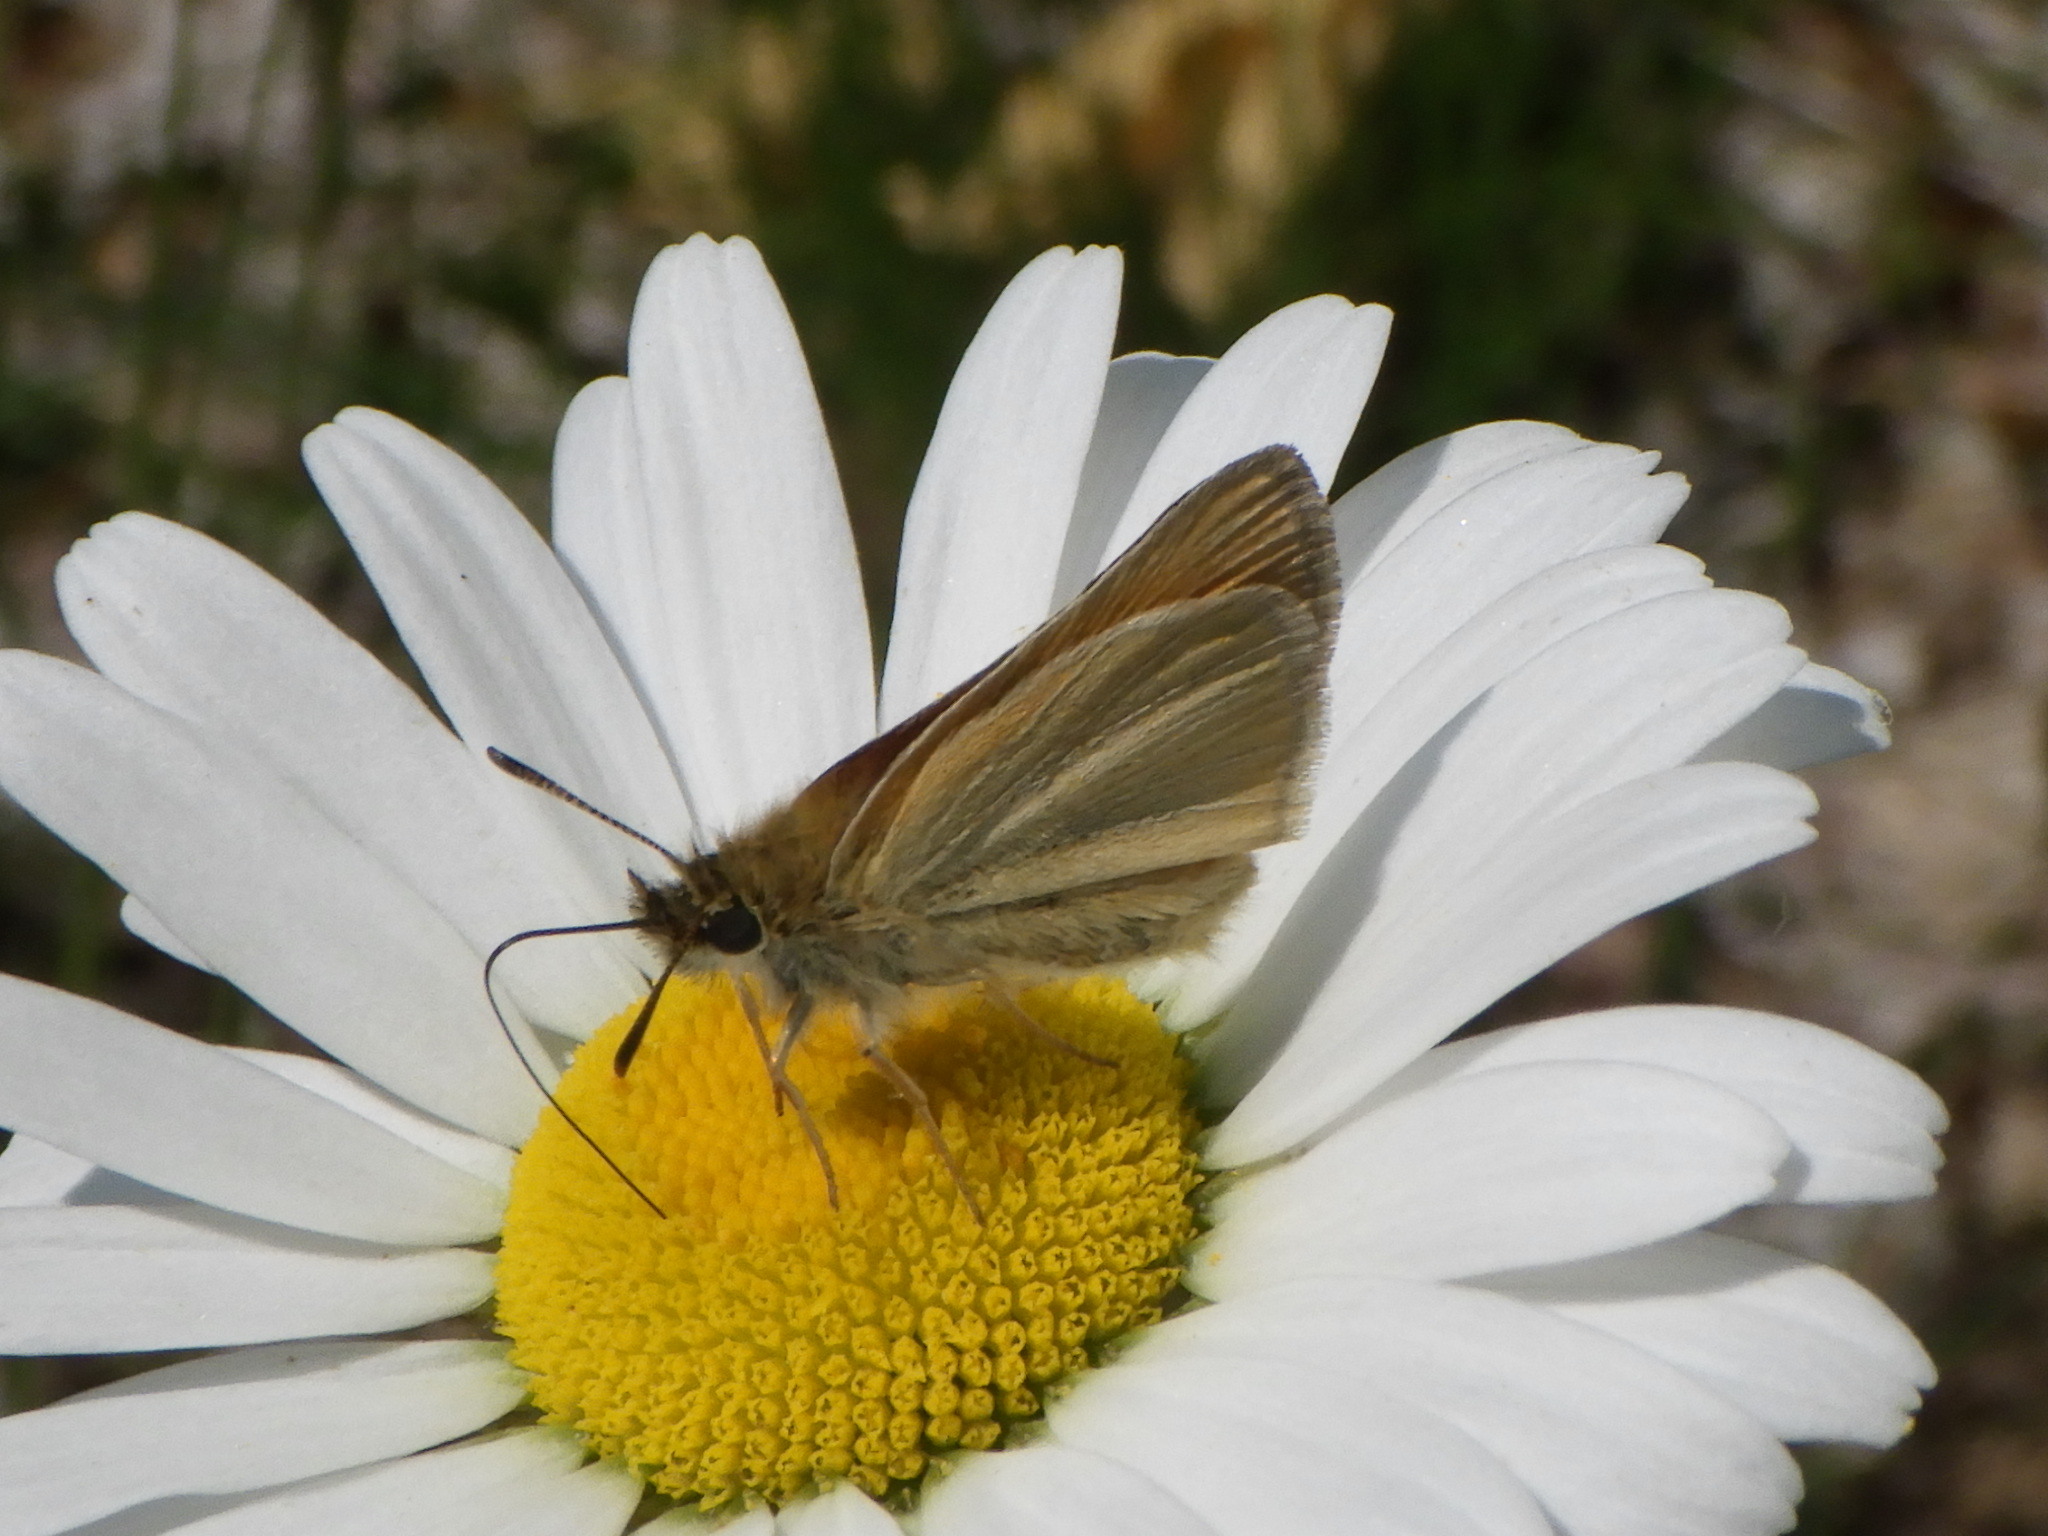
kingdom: Animalia
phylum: Arthropoda
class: Insecta
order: Lepidoptera
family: Hesperiidae
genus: Thymelicus
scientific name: Thymelicus lineola
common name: Essex skipper
